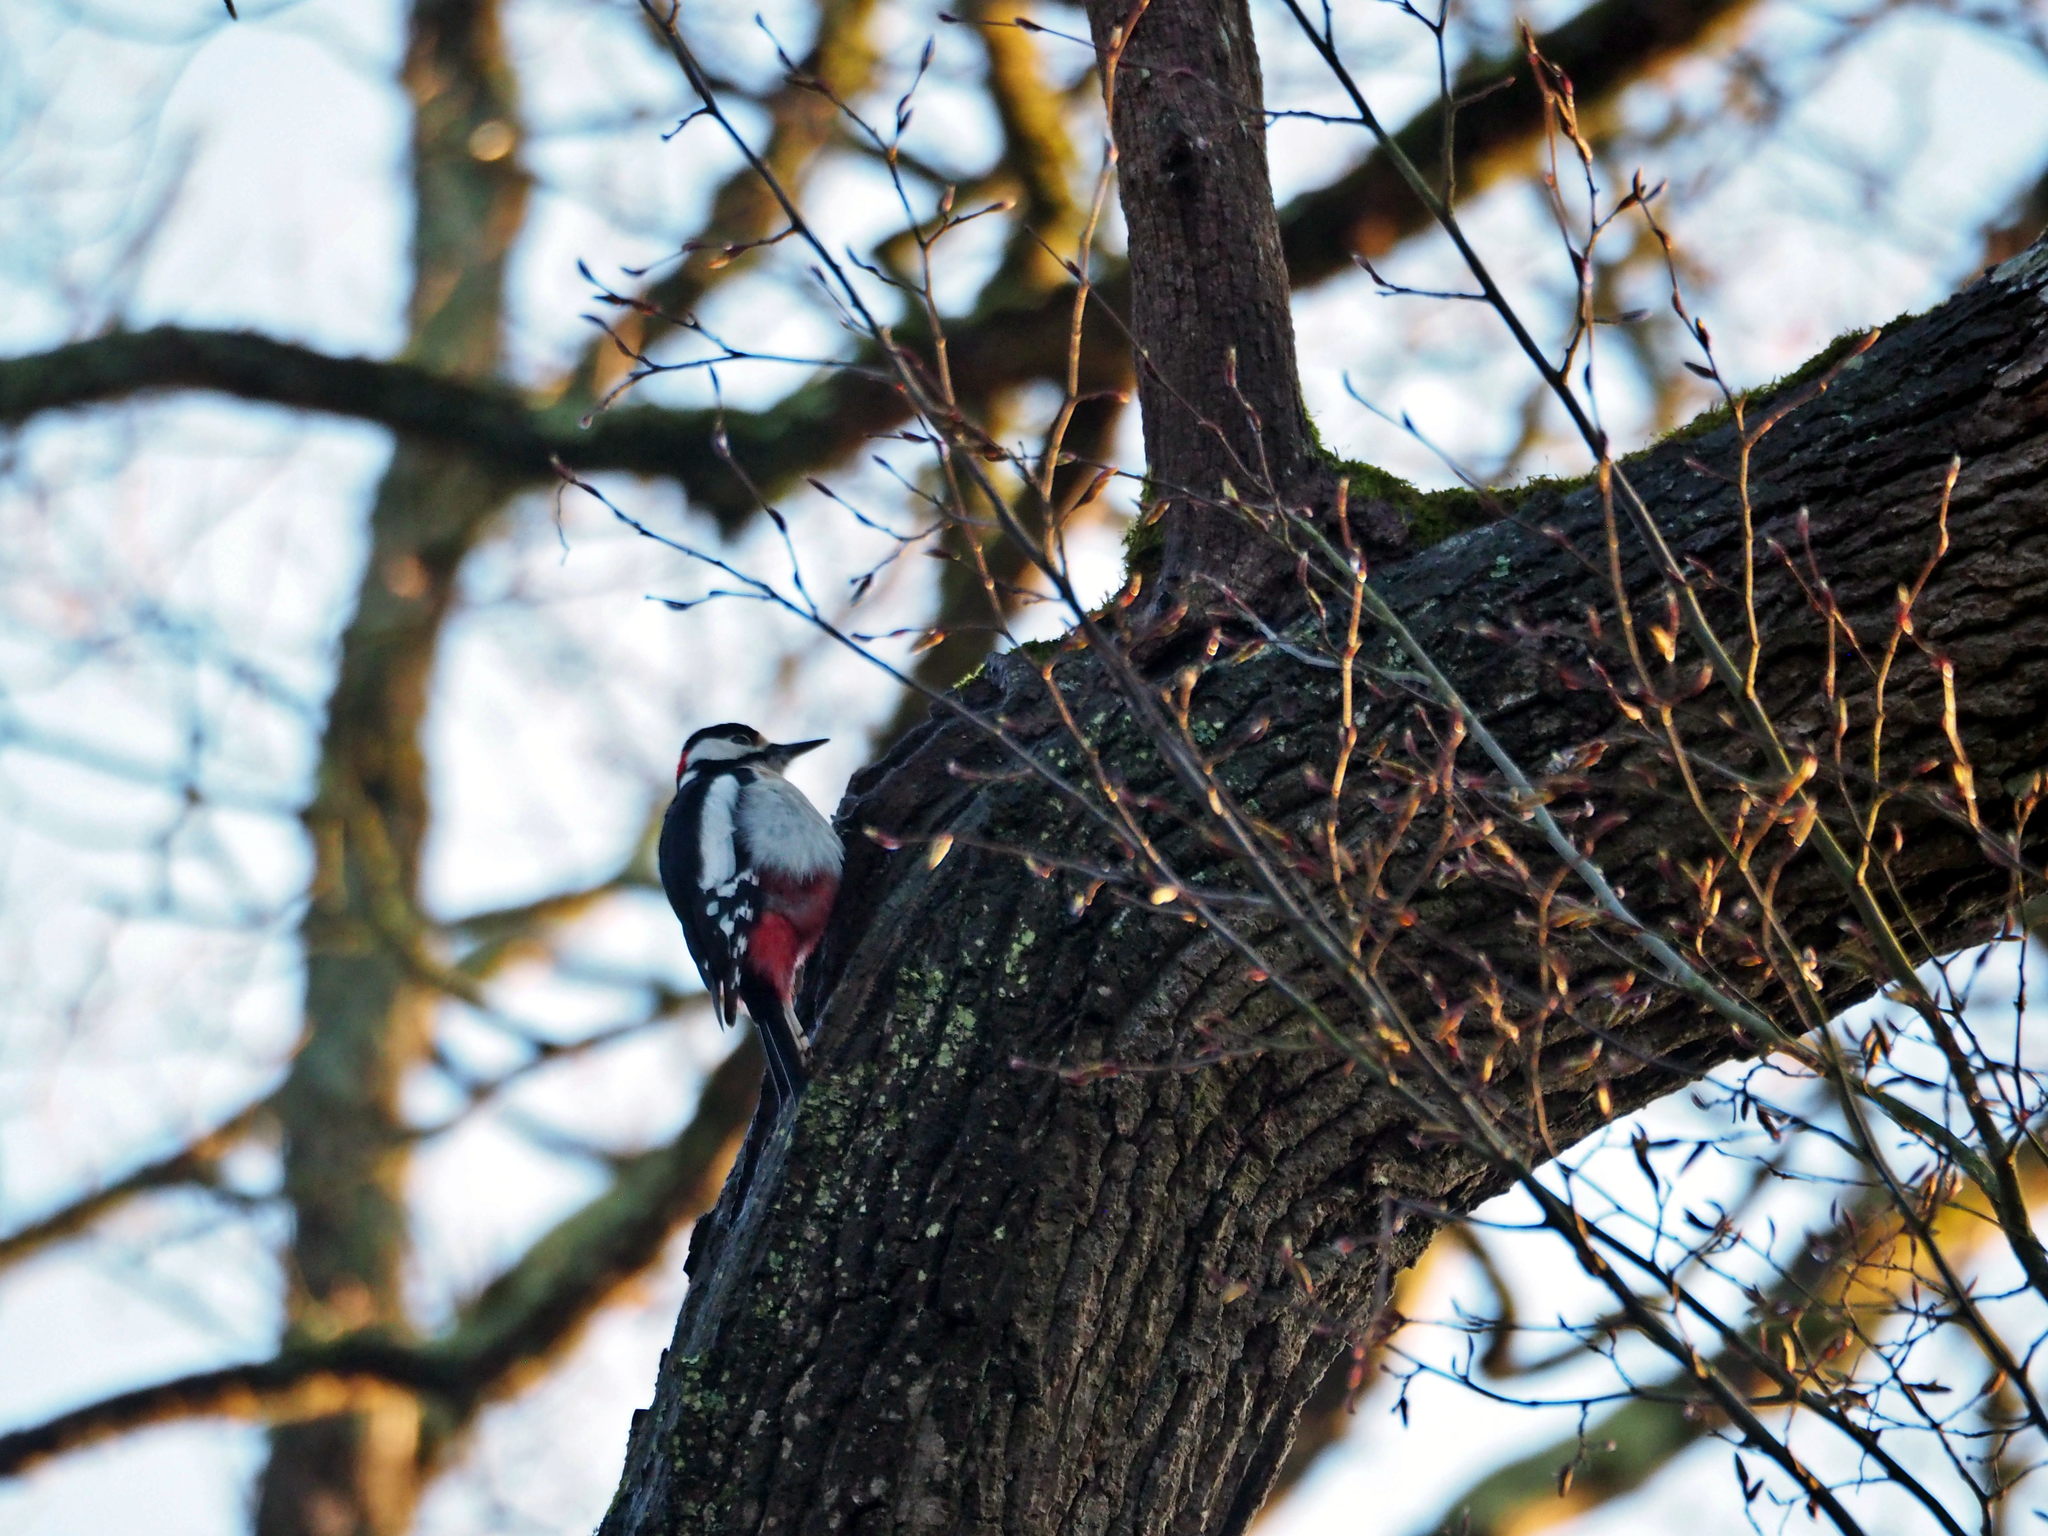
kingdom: Animalia
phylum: Chordata
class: Aves
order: Piciformes
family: Picidae
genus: Dendrocopos
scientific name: Dendrocopos major
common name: Great spotted woodpecker
